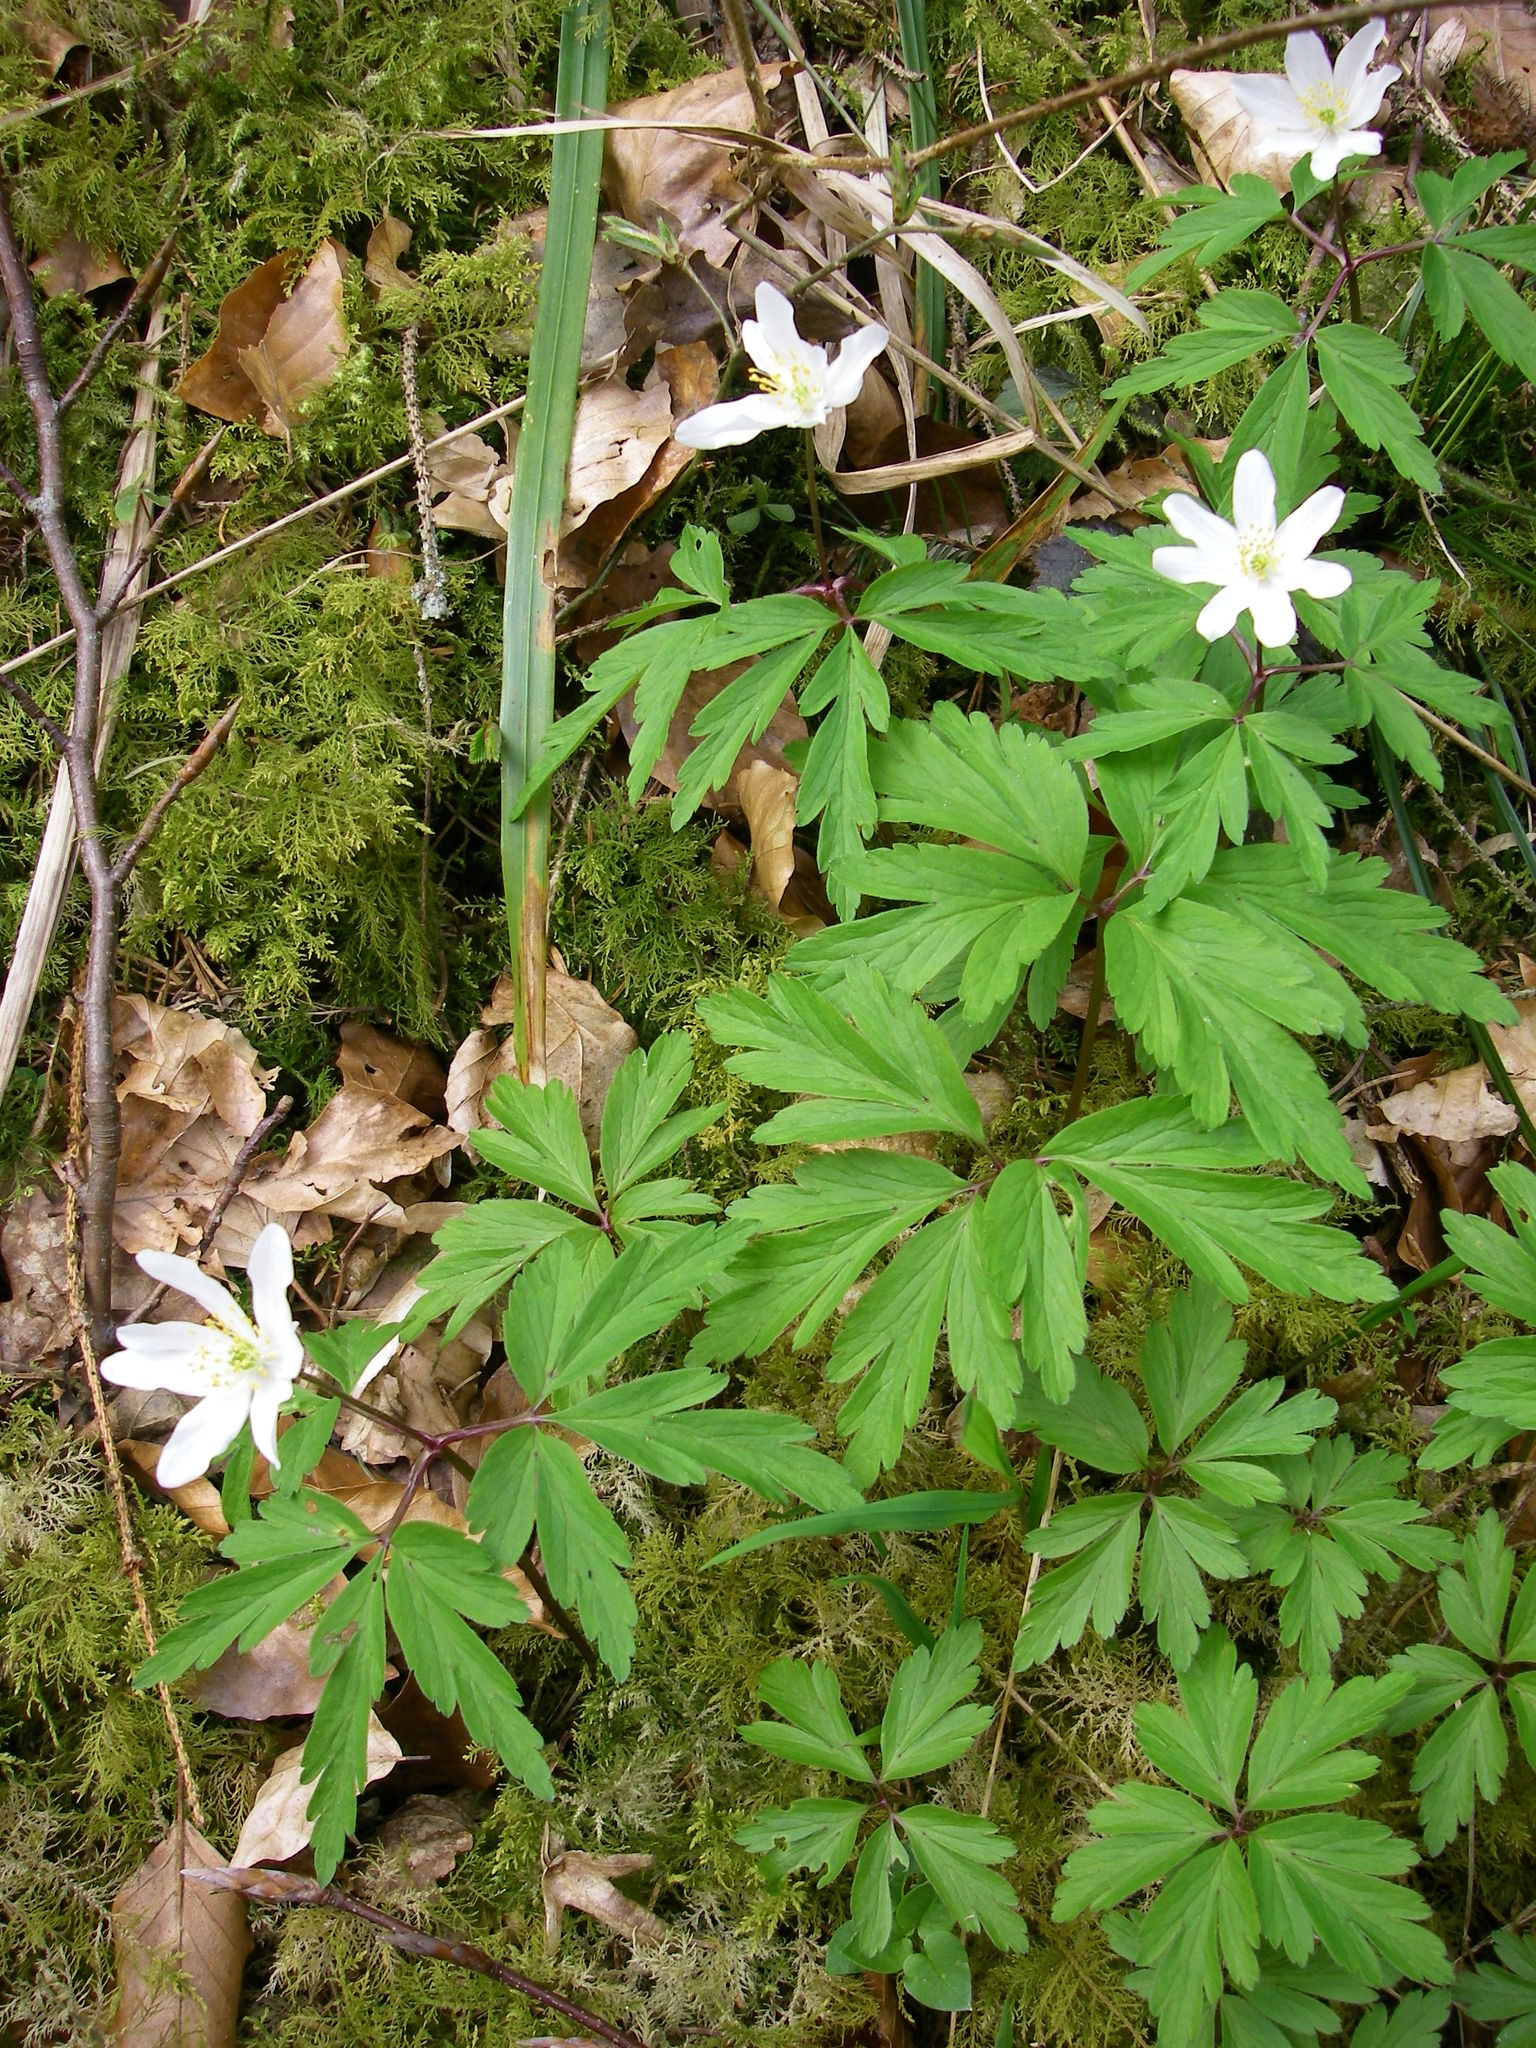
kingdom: Plantae
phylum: Tracheophyta
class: Magnoliopsida
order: Ranunculales
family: Ranunculaceae
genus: Anemone
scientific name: Anemone nemorosa
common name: Wood anemone
